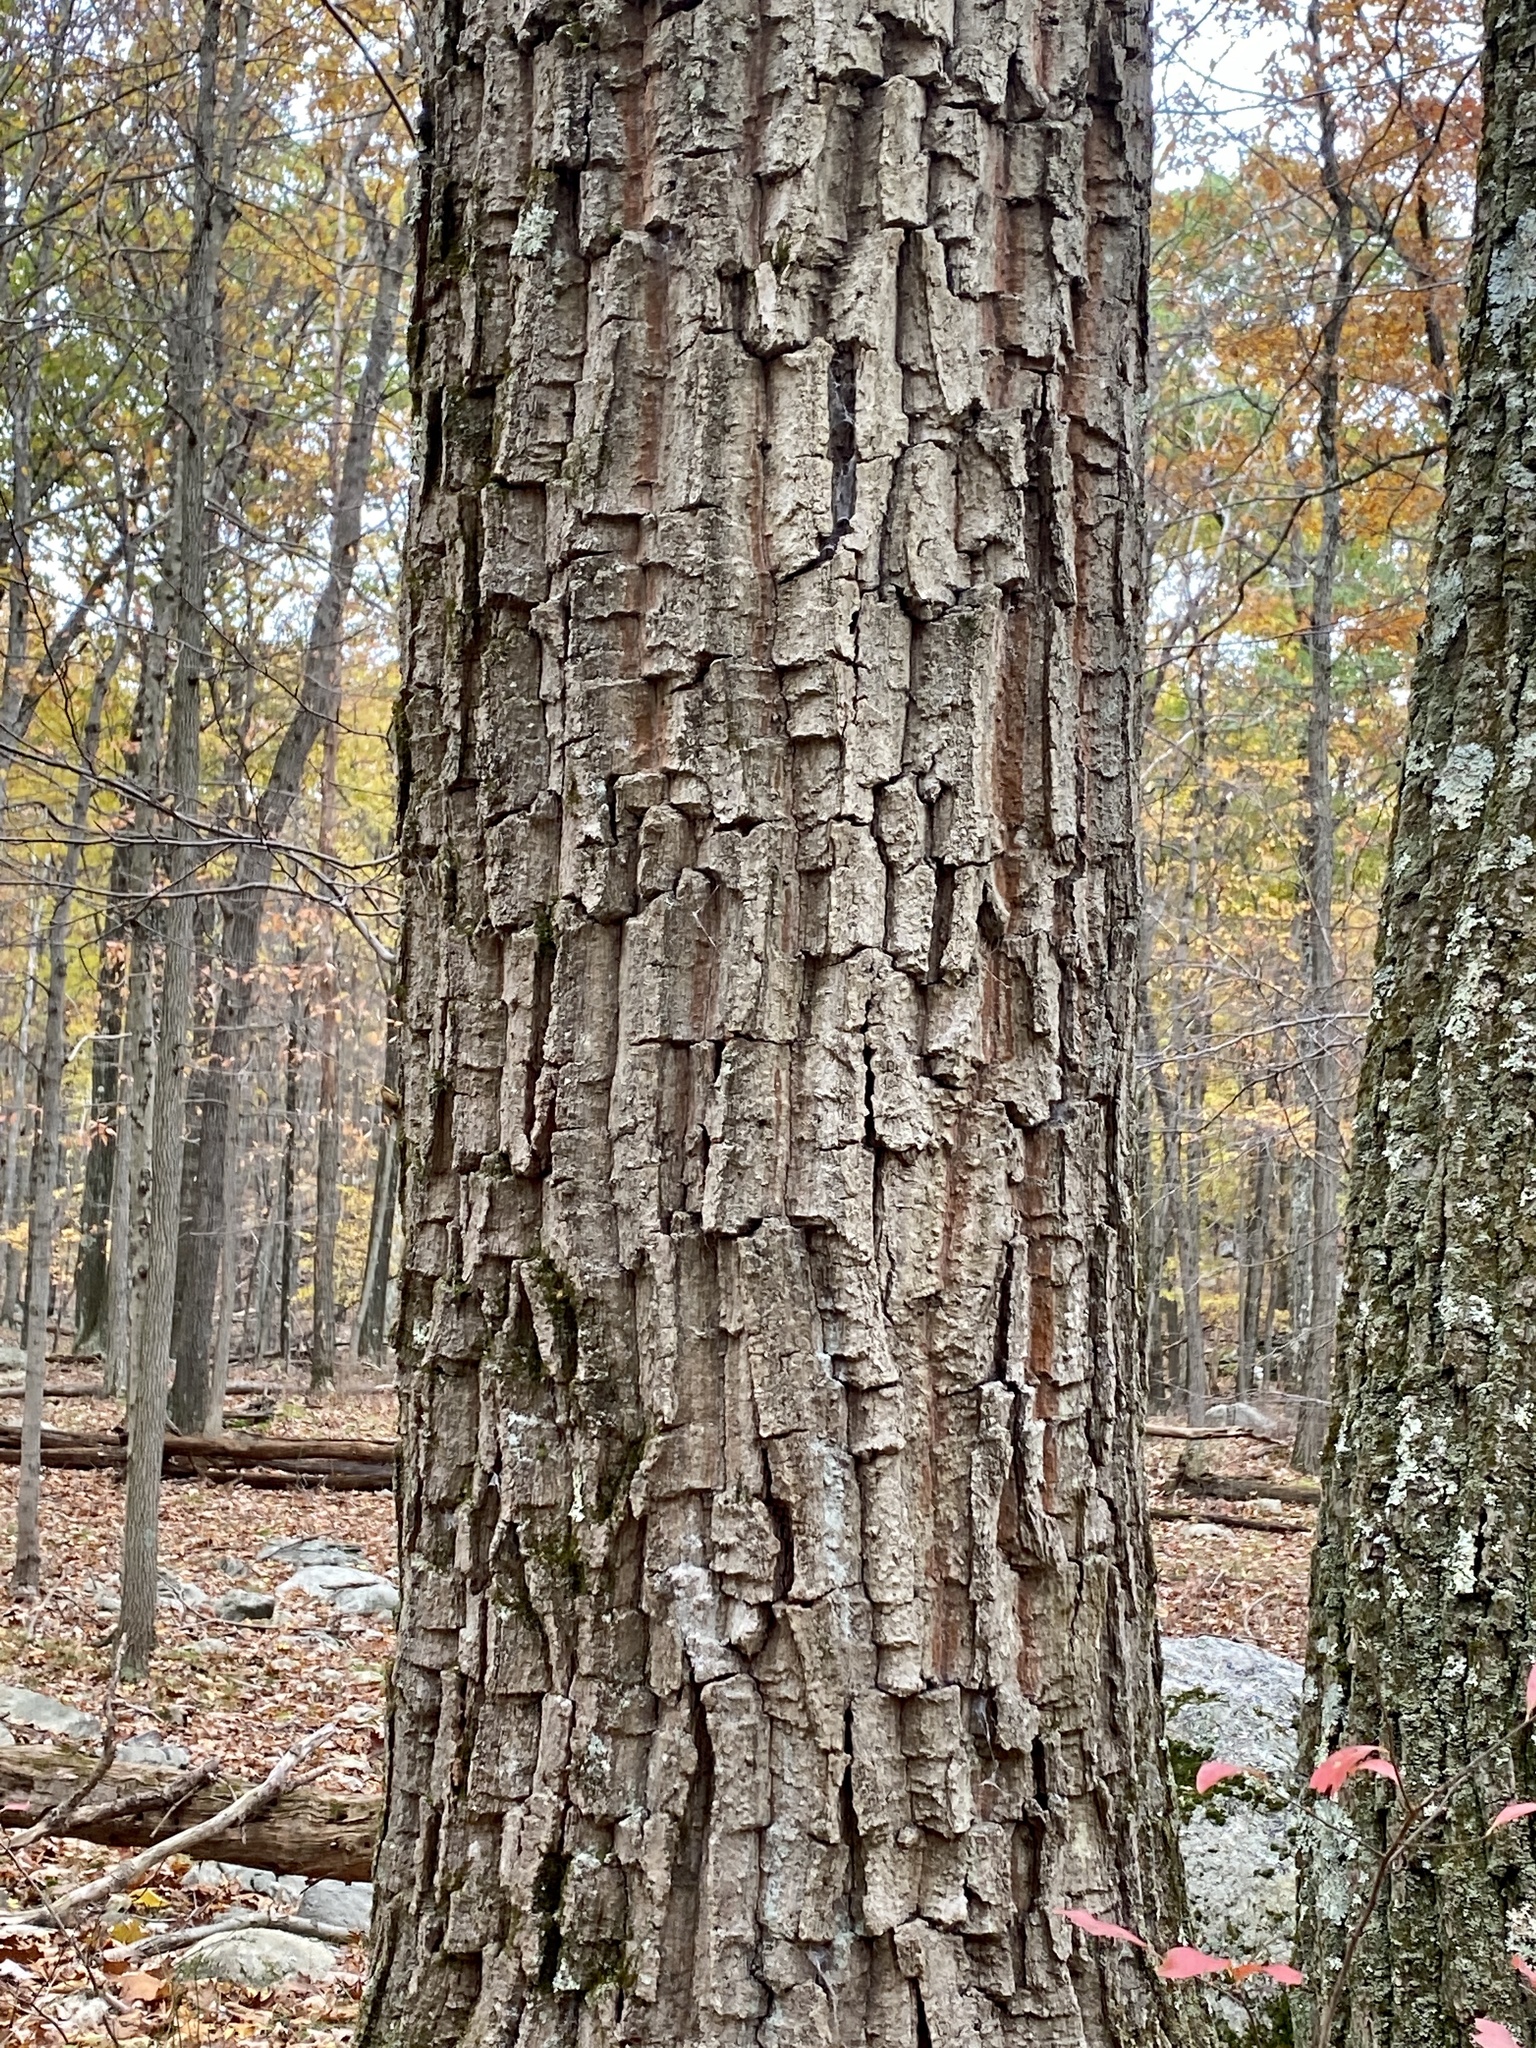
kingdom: Plantae
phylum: Tracheophyta
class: Magnoliopsida
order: Fagales
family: Fagaceae
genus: Quercus
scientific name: Quercus montana
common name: Chestnut oak
